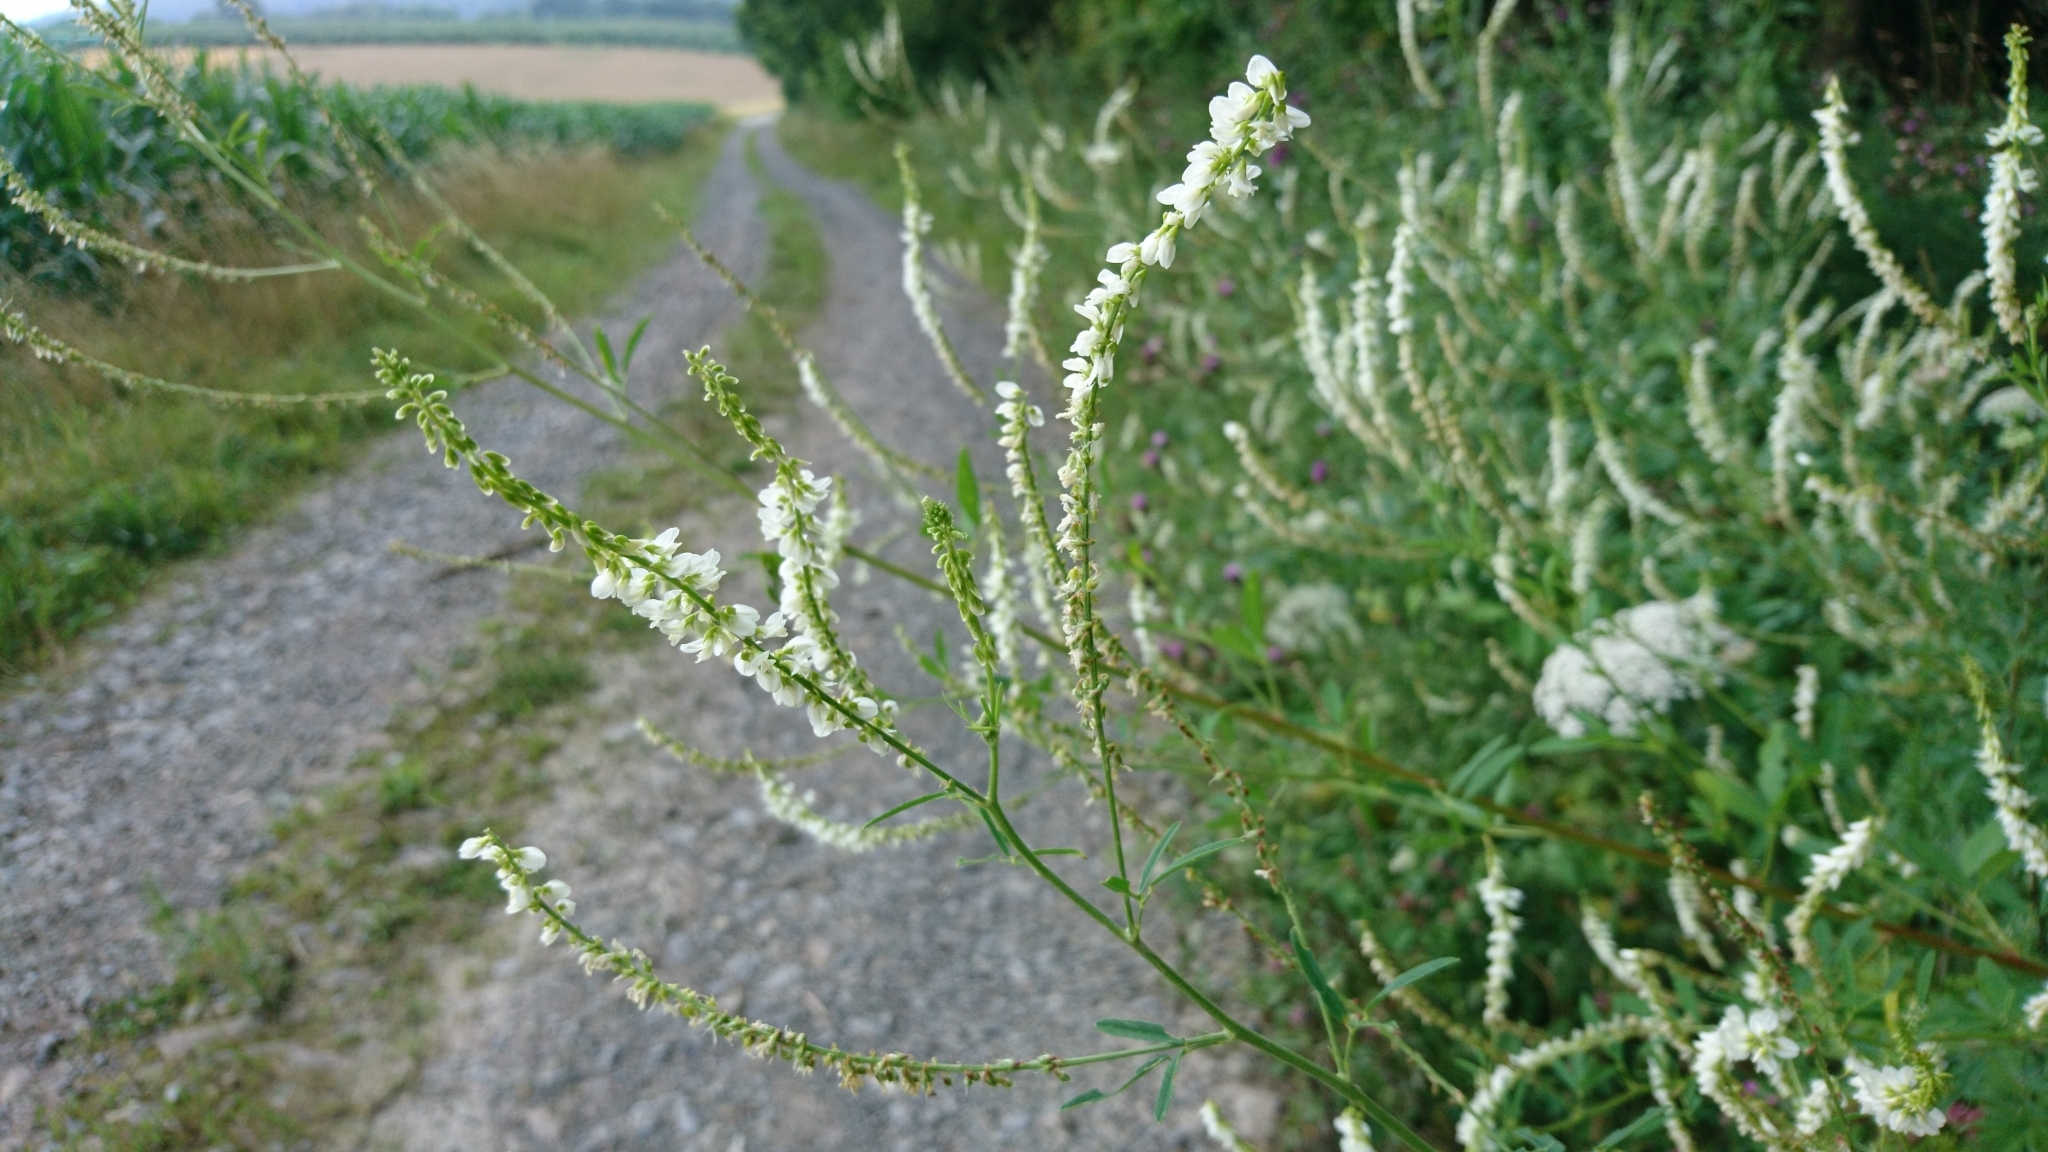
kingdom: Plantae
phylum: Tracheophyta
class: Magnoliopsida
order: Fabales
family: Fabaceae
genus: Melilotus
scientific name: Melilotus albus
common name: White melilot
